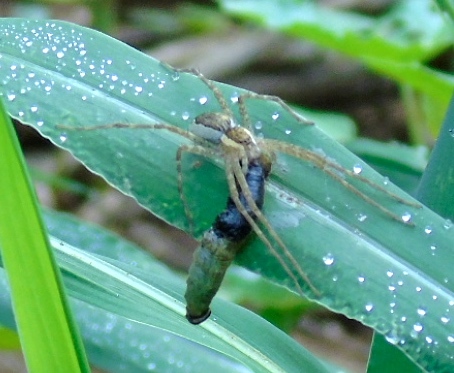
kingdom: Animalia
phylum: Arthropoda
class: Arachnida
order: Araneae
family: Pisauridae
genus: Tinus
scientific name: Tinus
